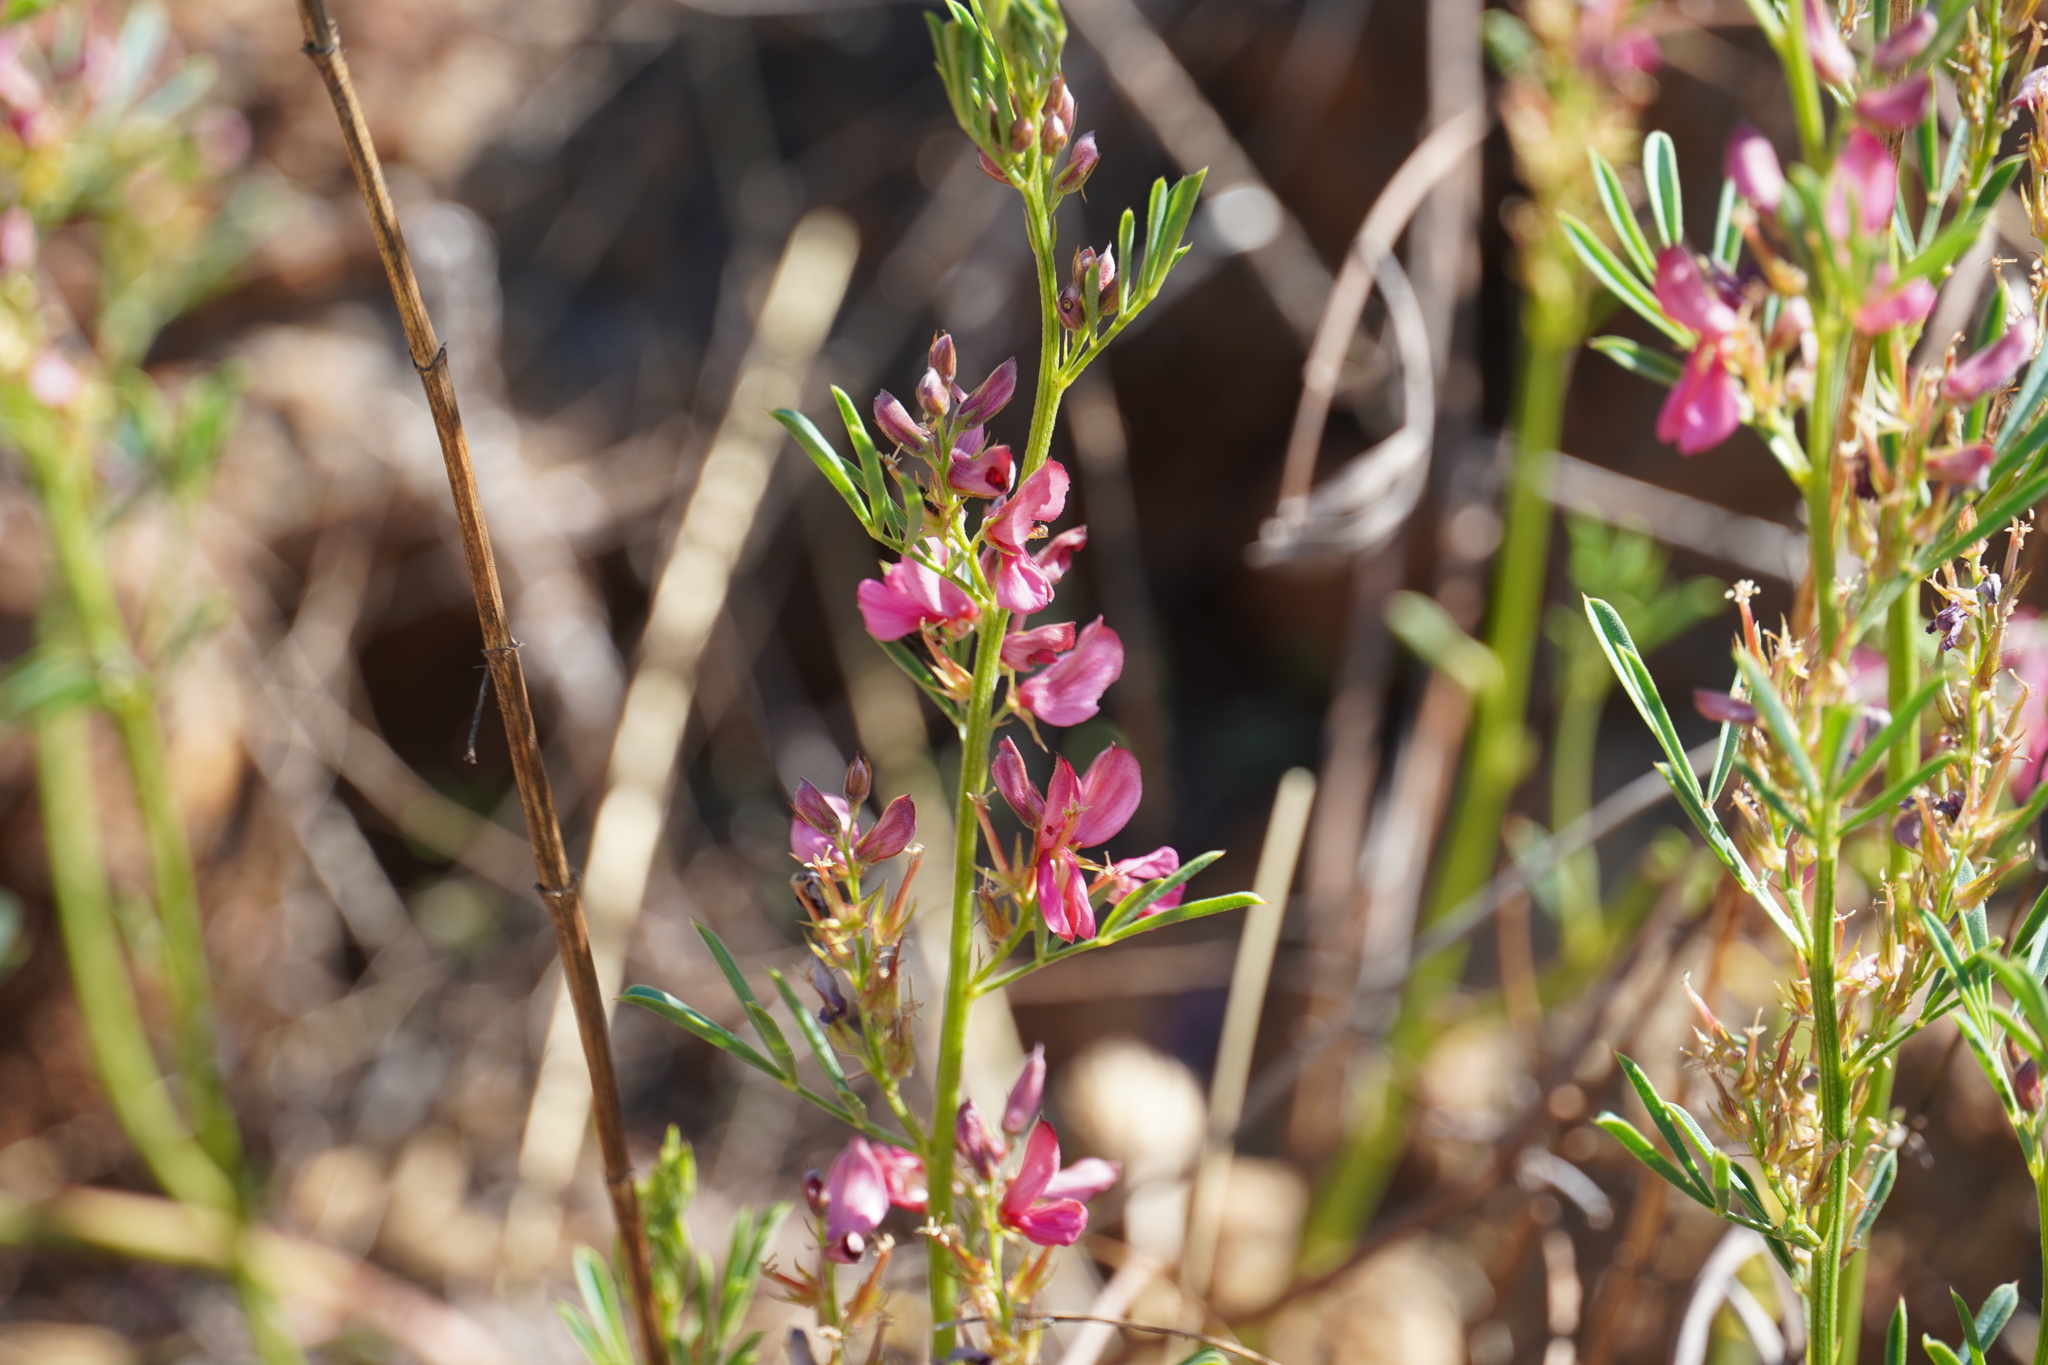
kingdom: Plantae
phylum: Tracheophyta
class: Magnoliopsida
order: Fabales
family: Fabaceae
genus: Indigofera
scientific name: Indigofera hilaris
